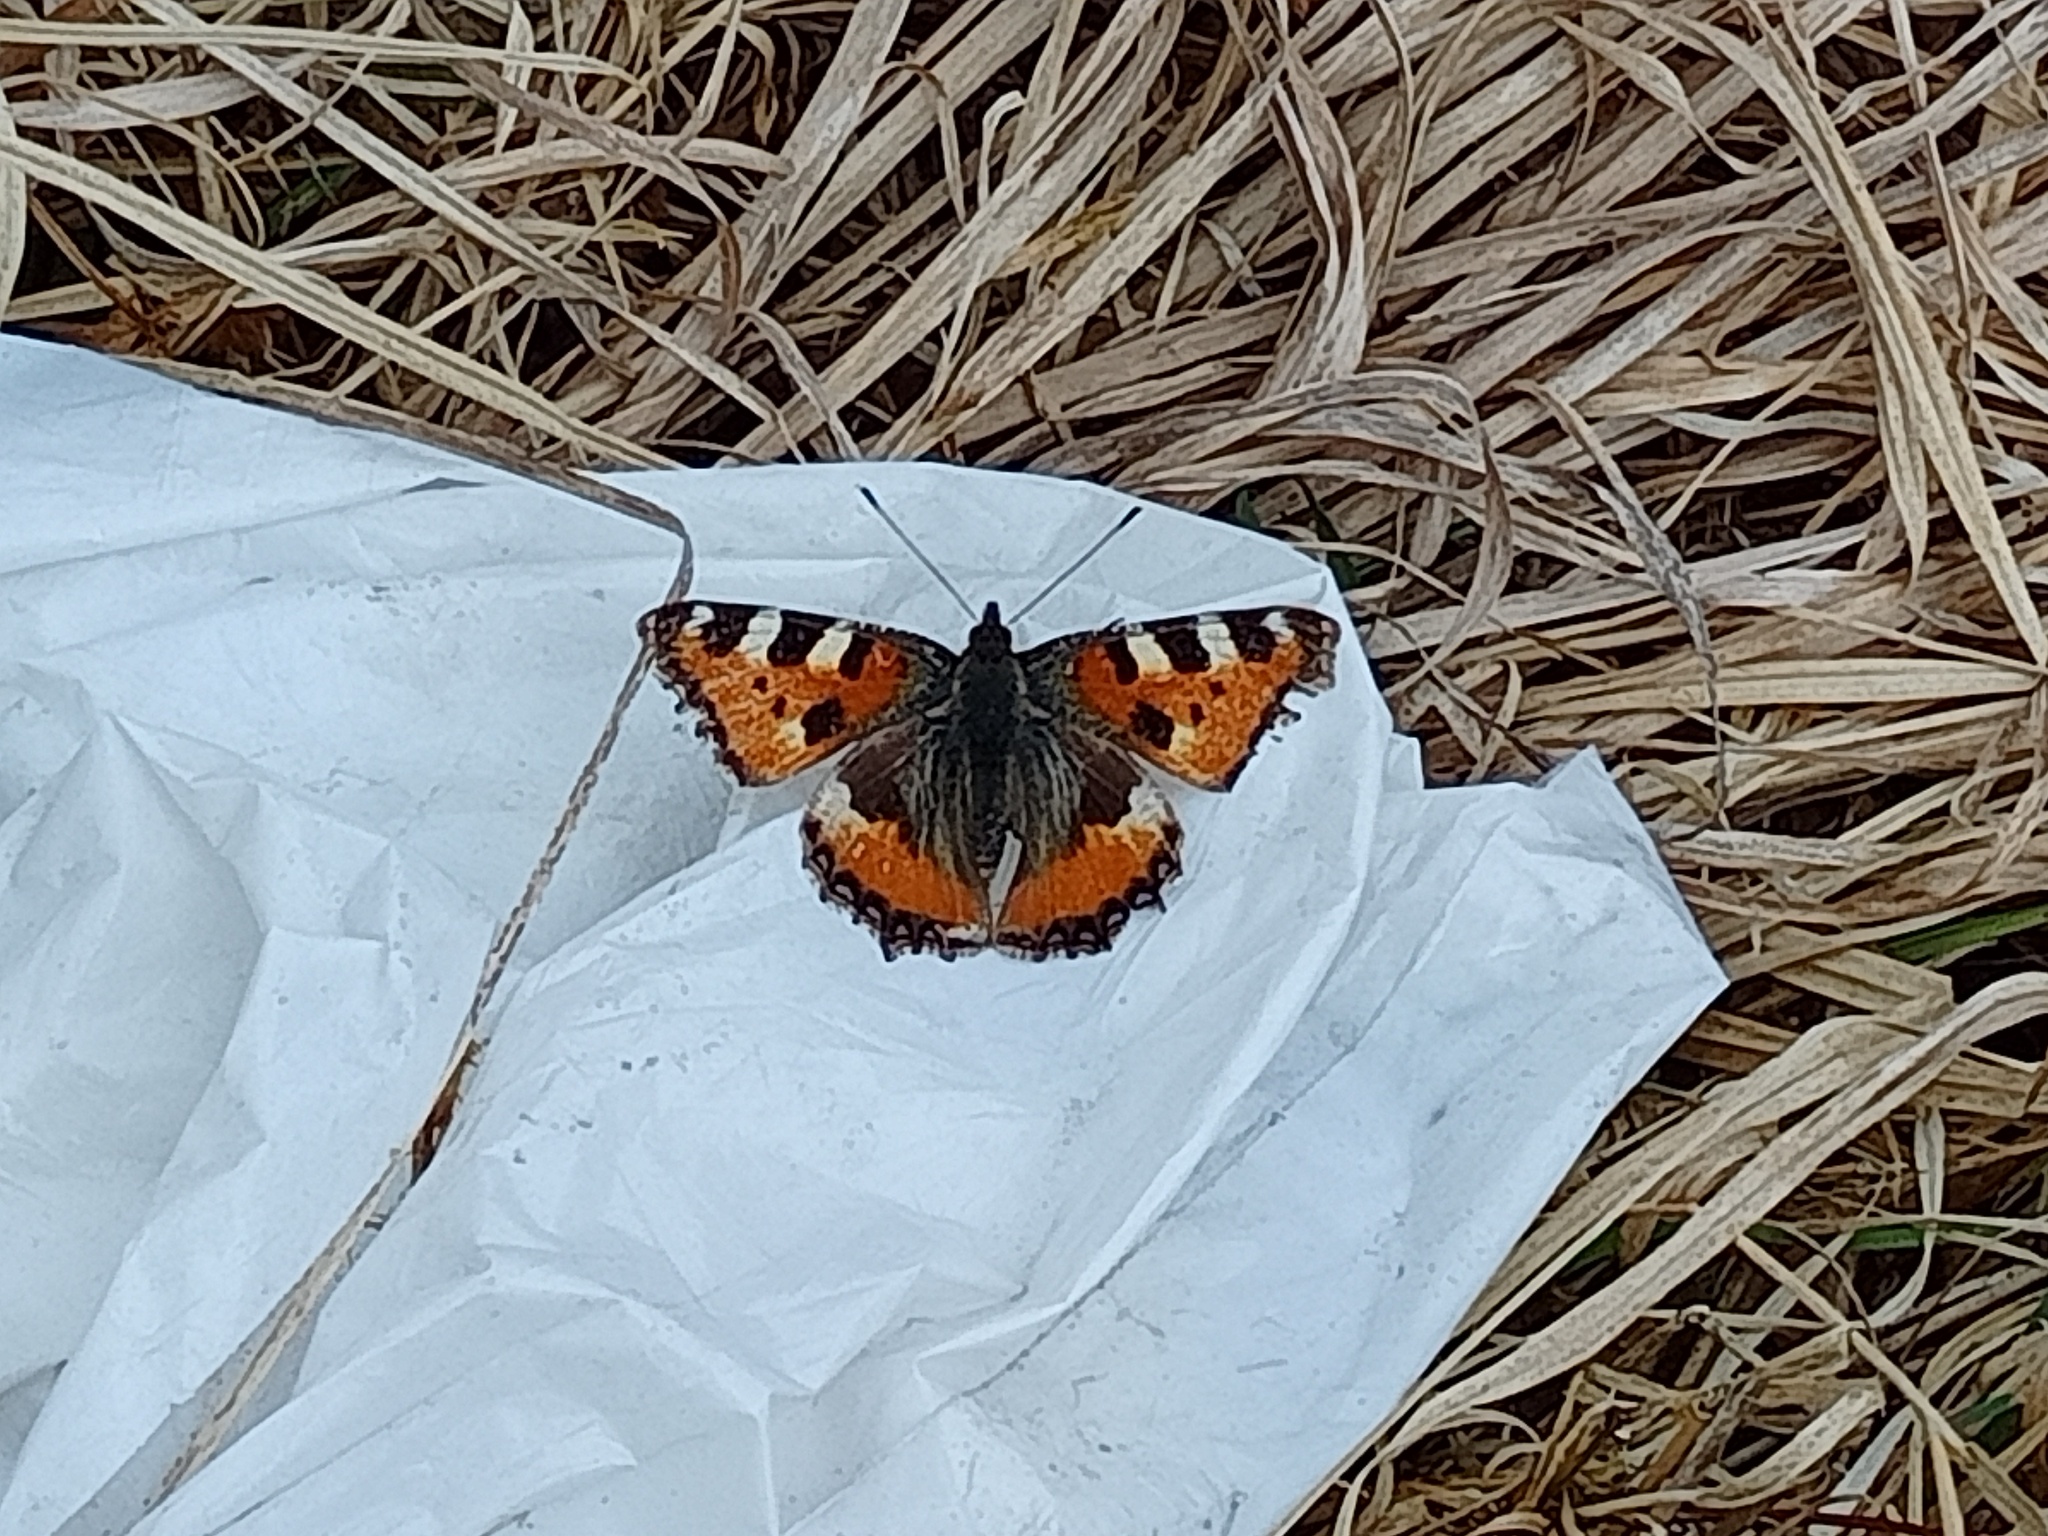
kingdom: Animalia
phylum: Arthropoda
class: Insecta
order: Lepidoptera
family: Nymphalidae
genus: Aglais
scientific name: Aglais urticae
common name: Small tortoiseshell
